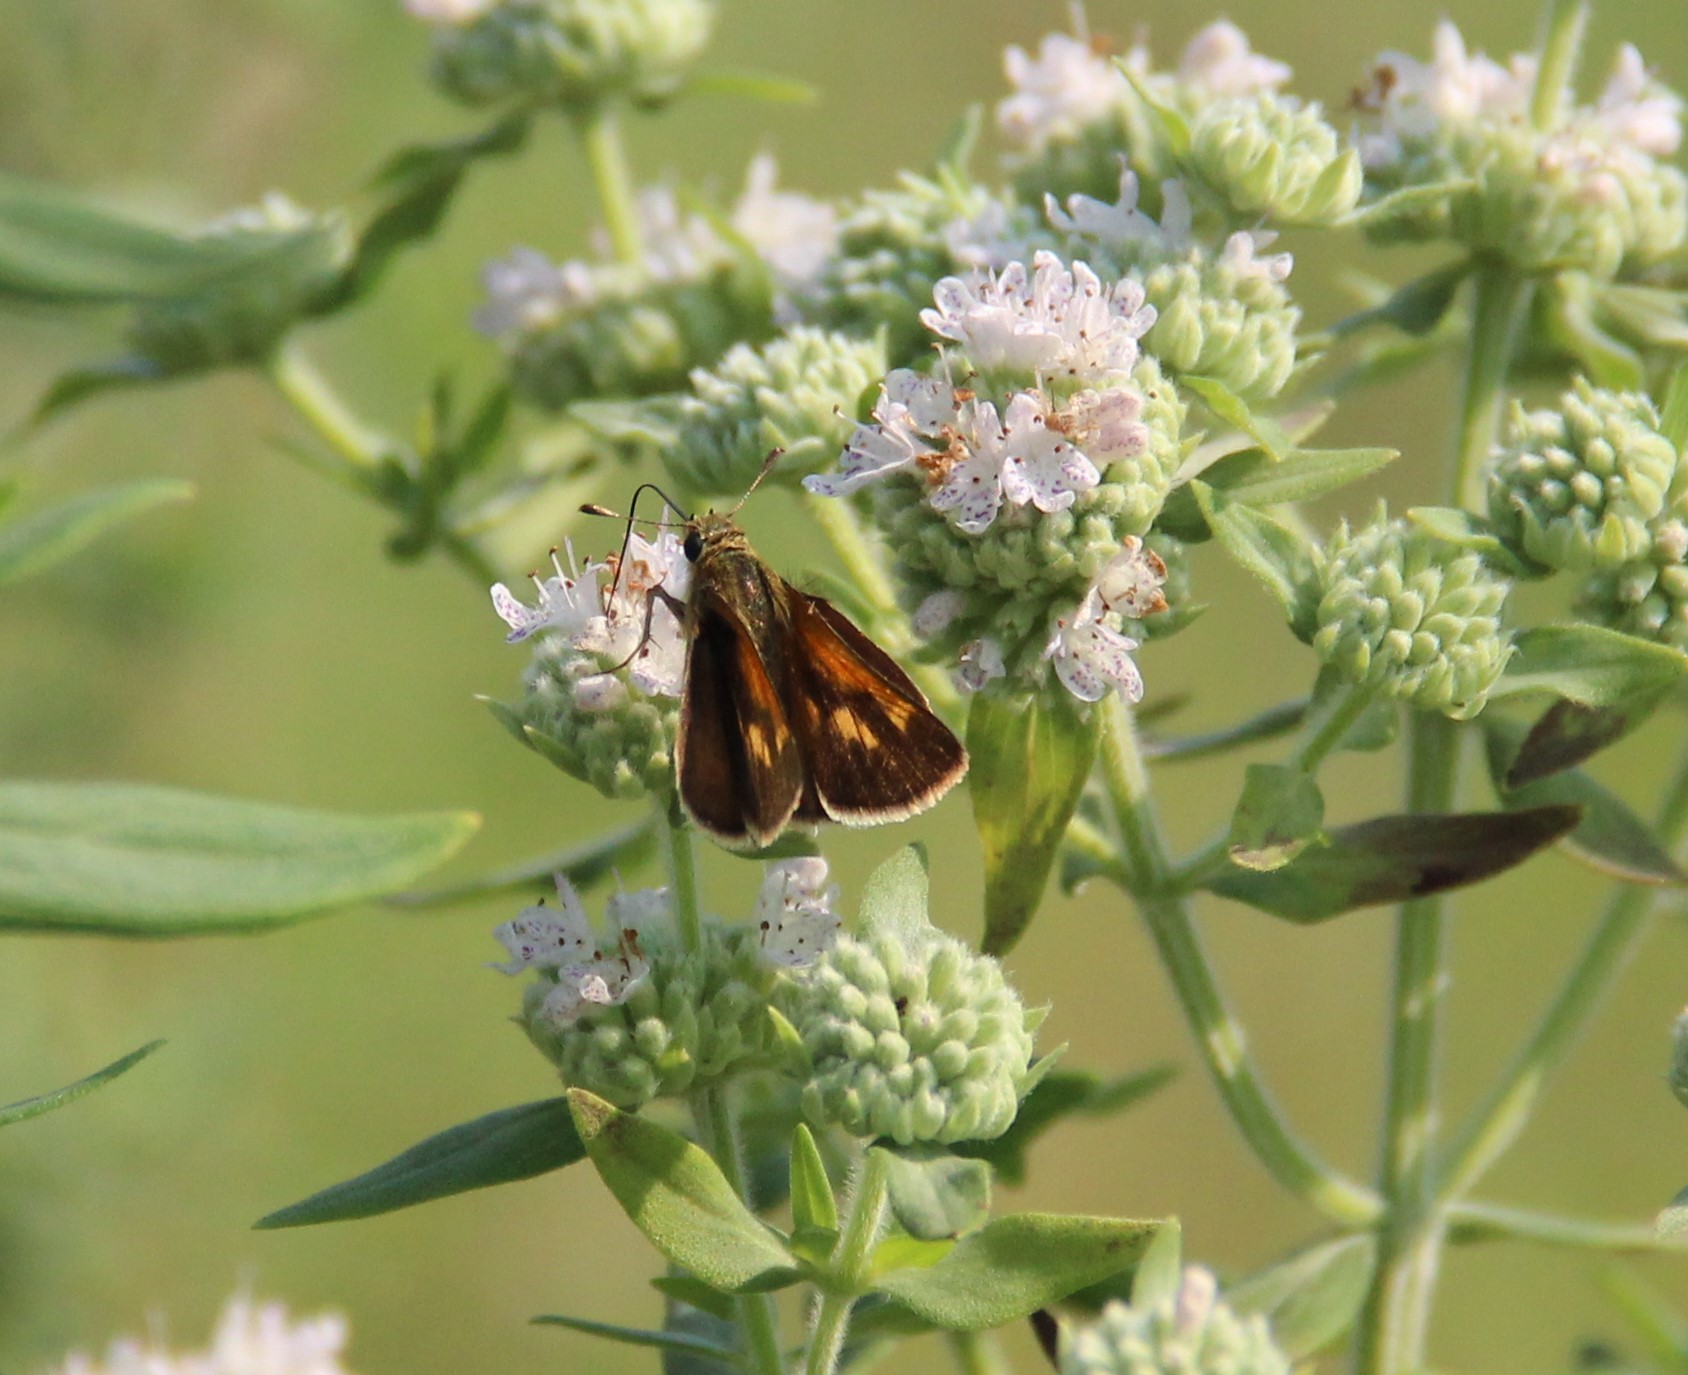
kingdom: Animalia
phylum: Arthropoda
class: Insecta
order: Lepidoptera
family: Hesperiidae
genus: Polites
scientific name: Polites coras
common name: Peck's skipper
